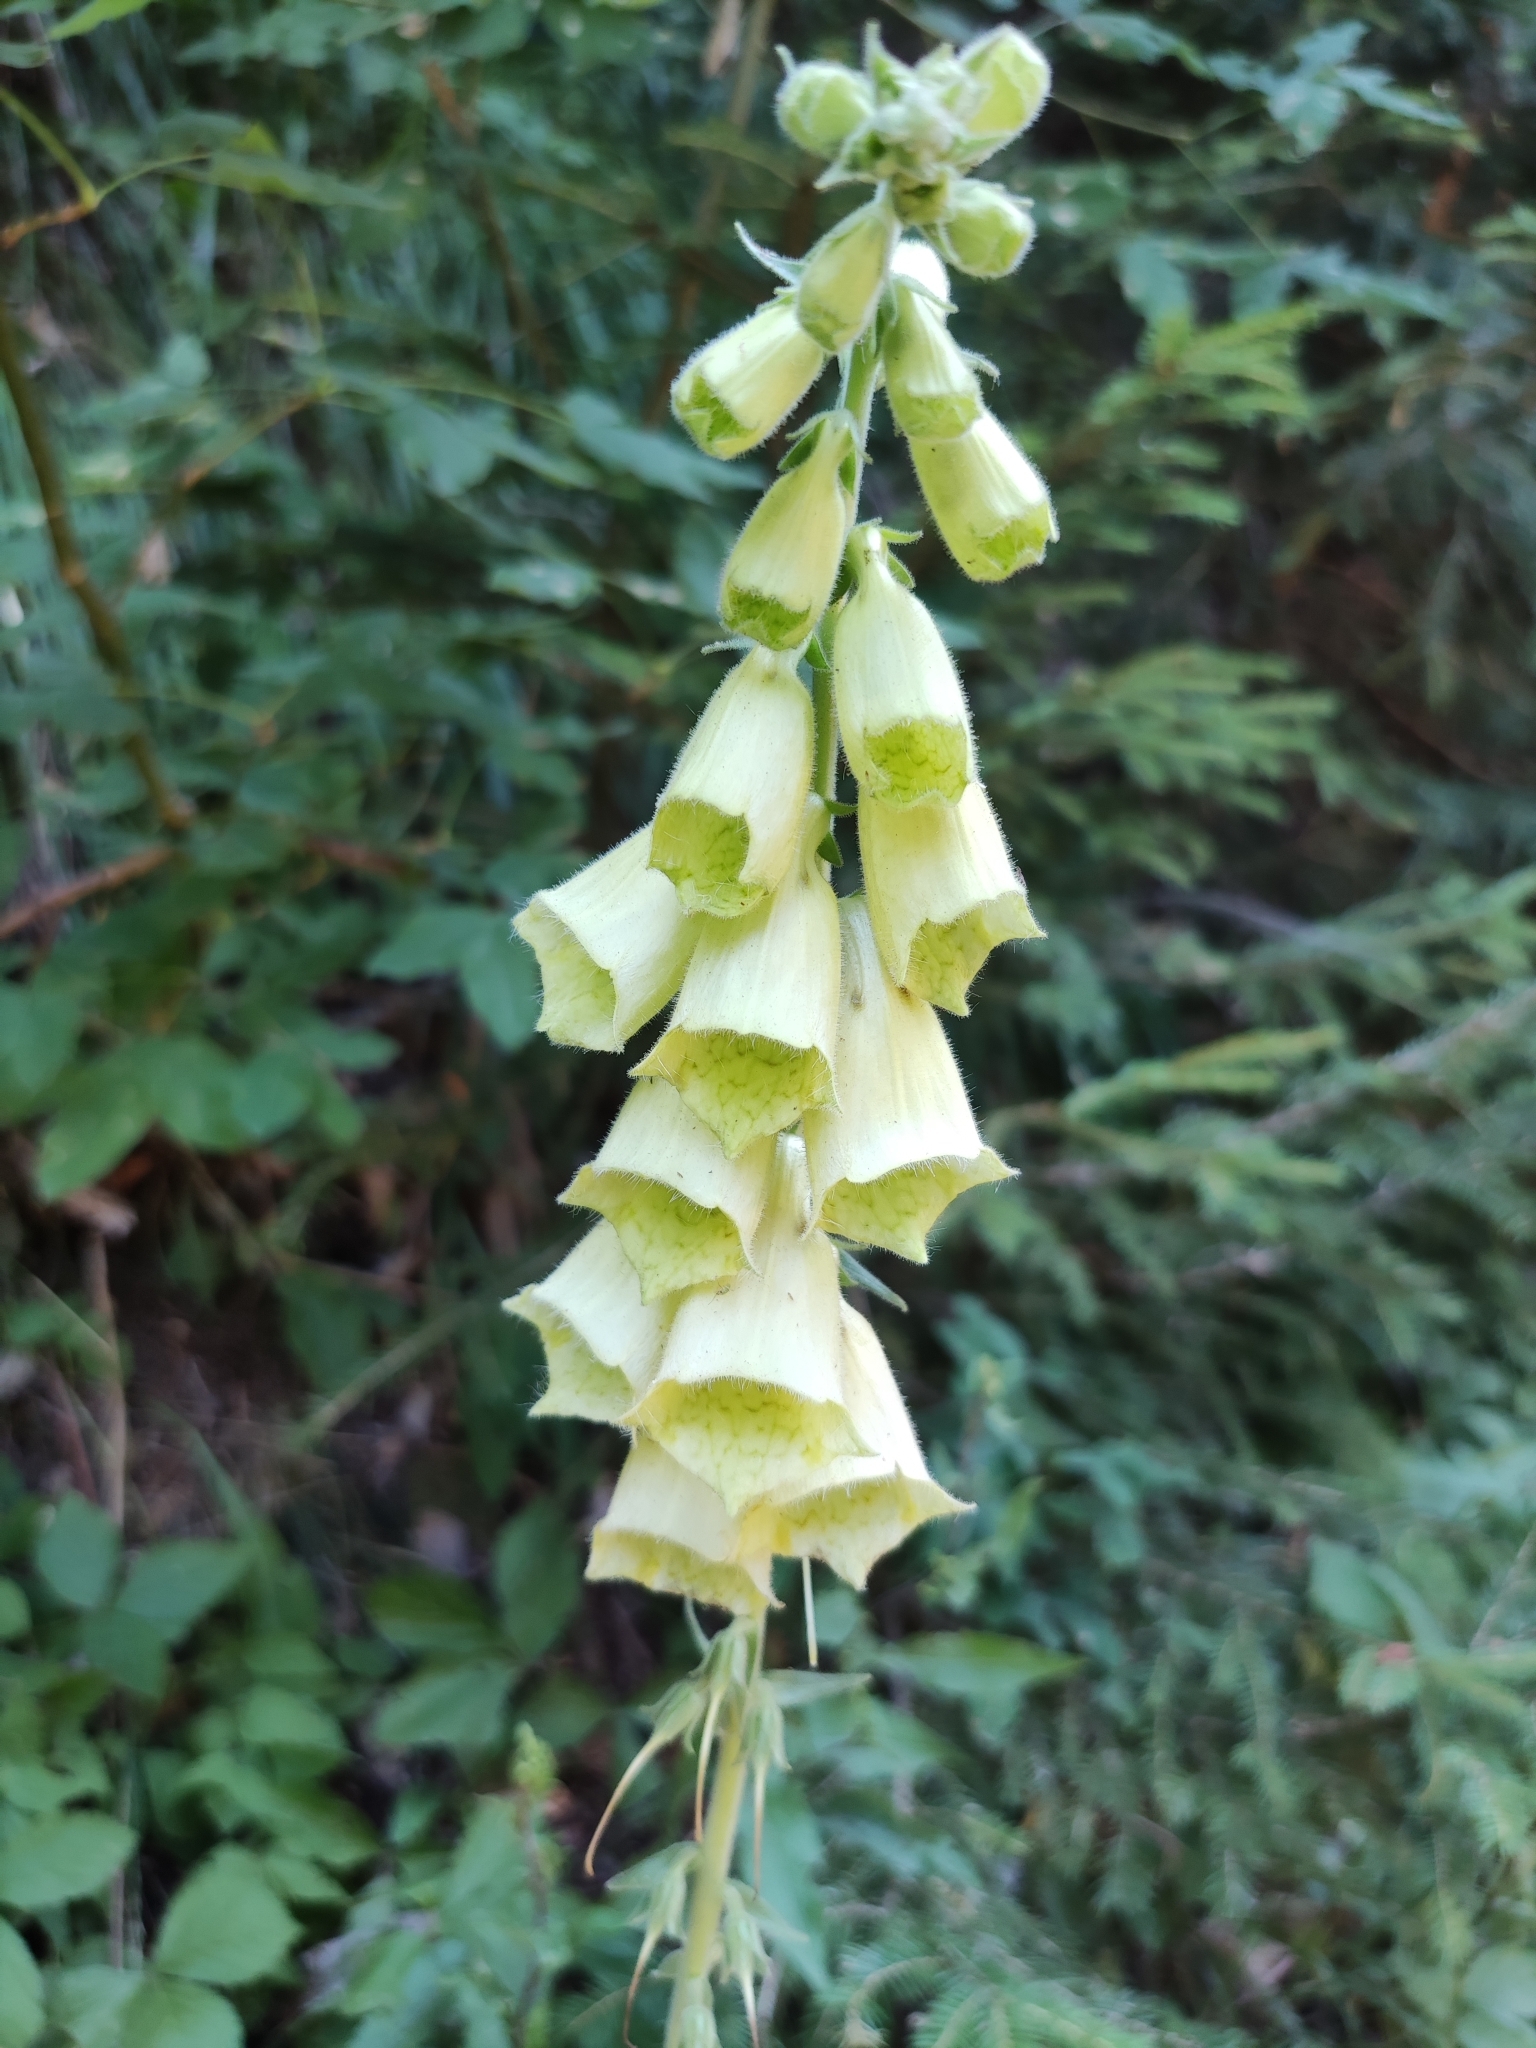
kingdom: Plantae
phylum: Tracheophyta
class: Magnoliopsida
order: Lamiales
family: Plantaginaceae
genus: Digitalis
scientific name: Digitalis grandiflora
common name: Yellow foxglove
